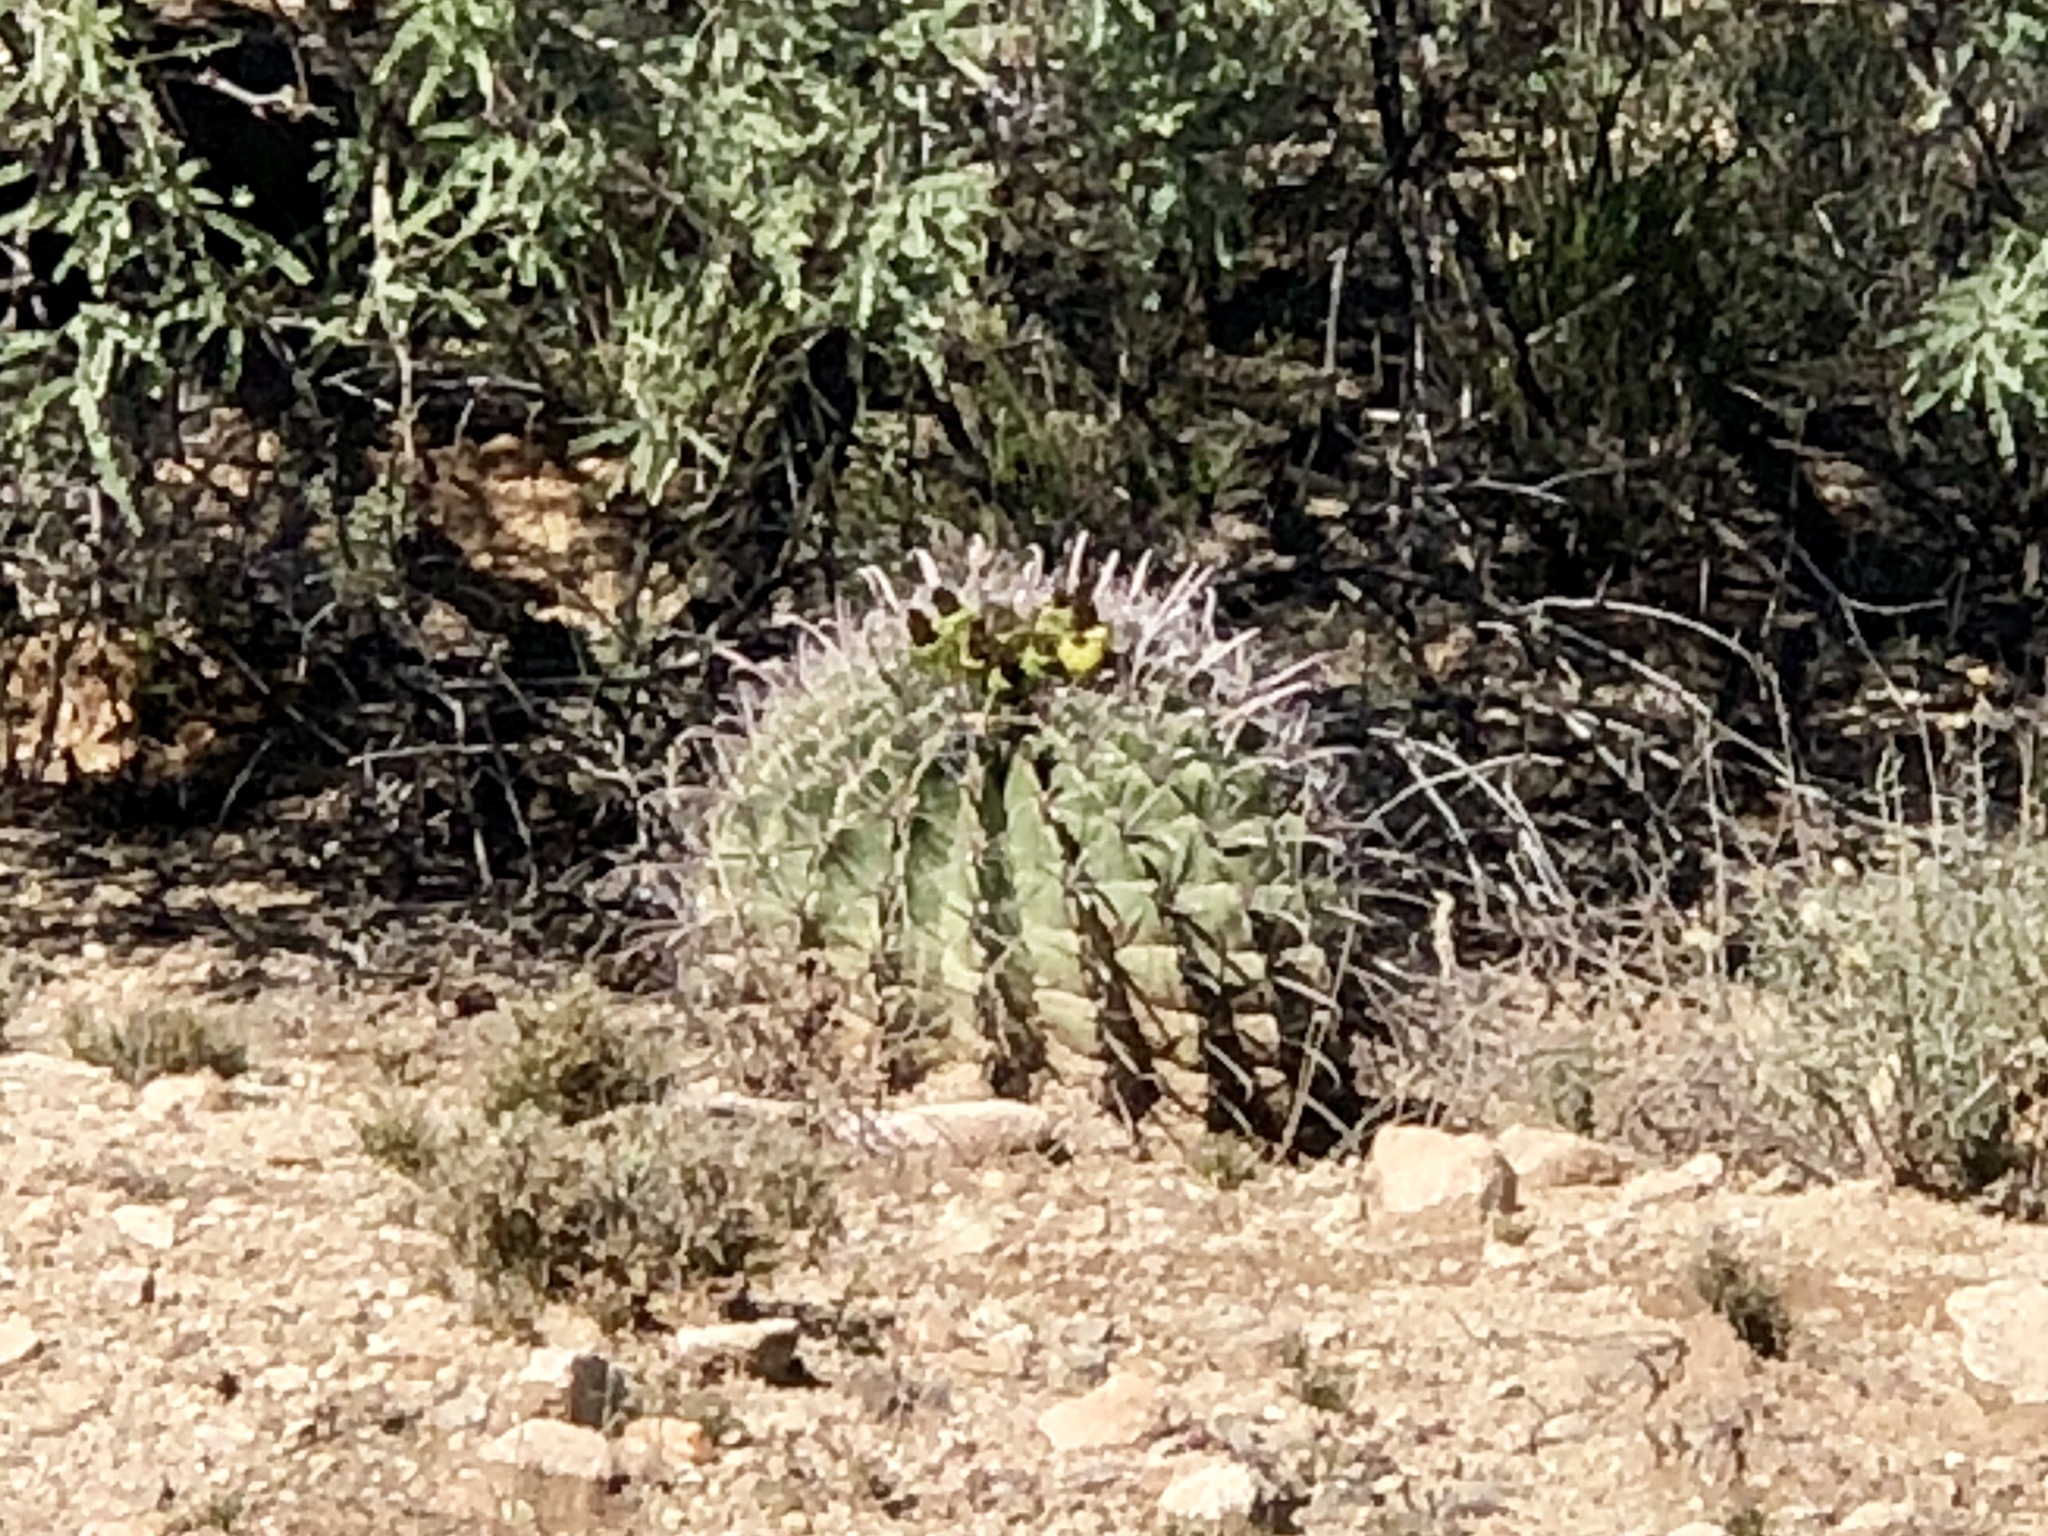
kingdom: Plantae
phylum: Tracheophyta
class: Magnoliopsida
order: Caryophyllales
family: Cactaceae
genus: Ferocactus
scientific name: Ferocactus wislizeni
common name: Candy barrel cactus
